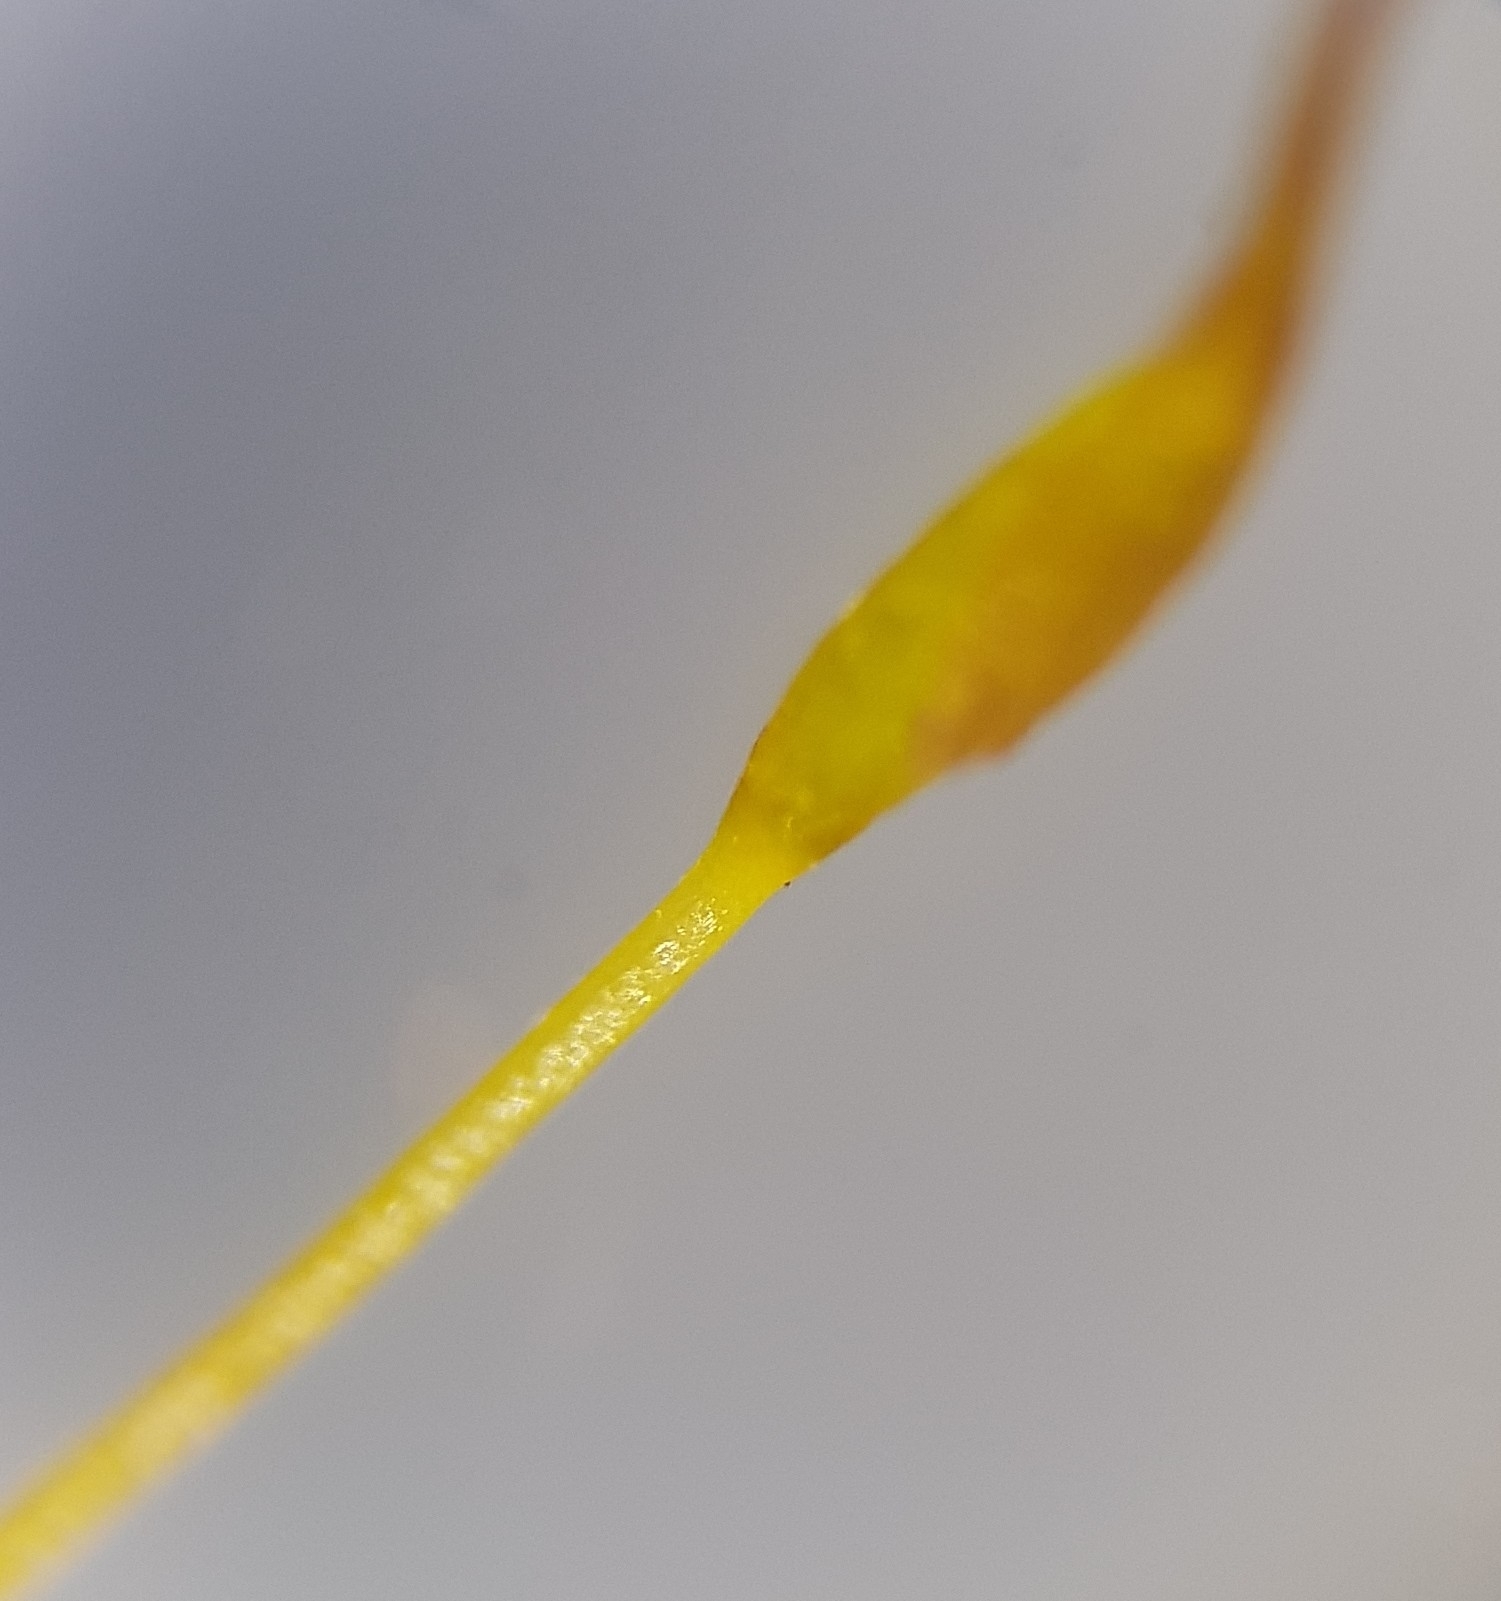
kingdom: Plantae
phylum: Bryophyta
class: Bryopsida
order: Pottiales
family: Pottiaceae
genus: Trichostomum
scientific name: Trichostomum meridionale
